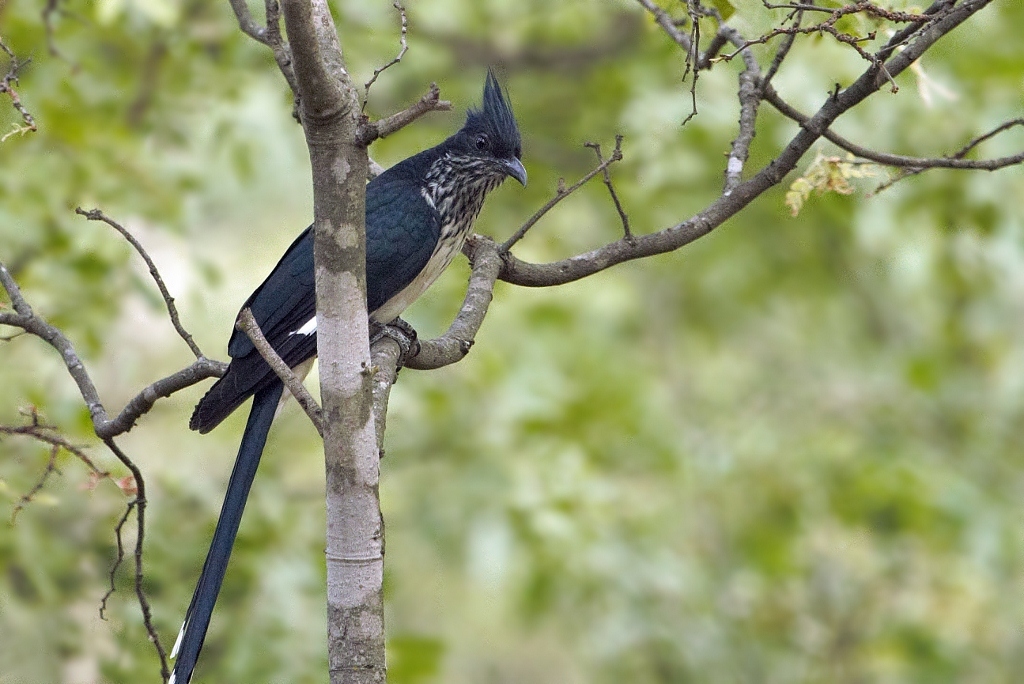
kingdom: Animalia
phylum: Chordata
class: Aves
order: Cuculiformes
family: Cuculidae
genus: Clamator
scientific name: Clamator levaillantii
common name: Levaillant's cuckoo
